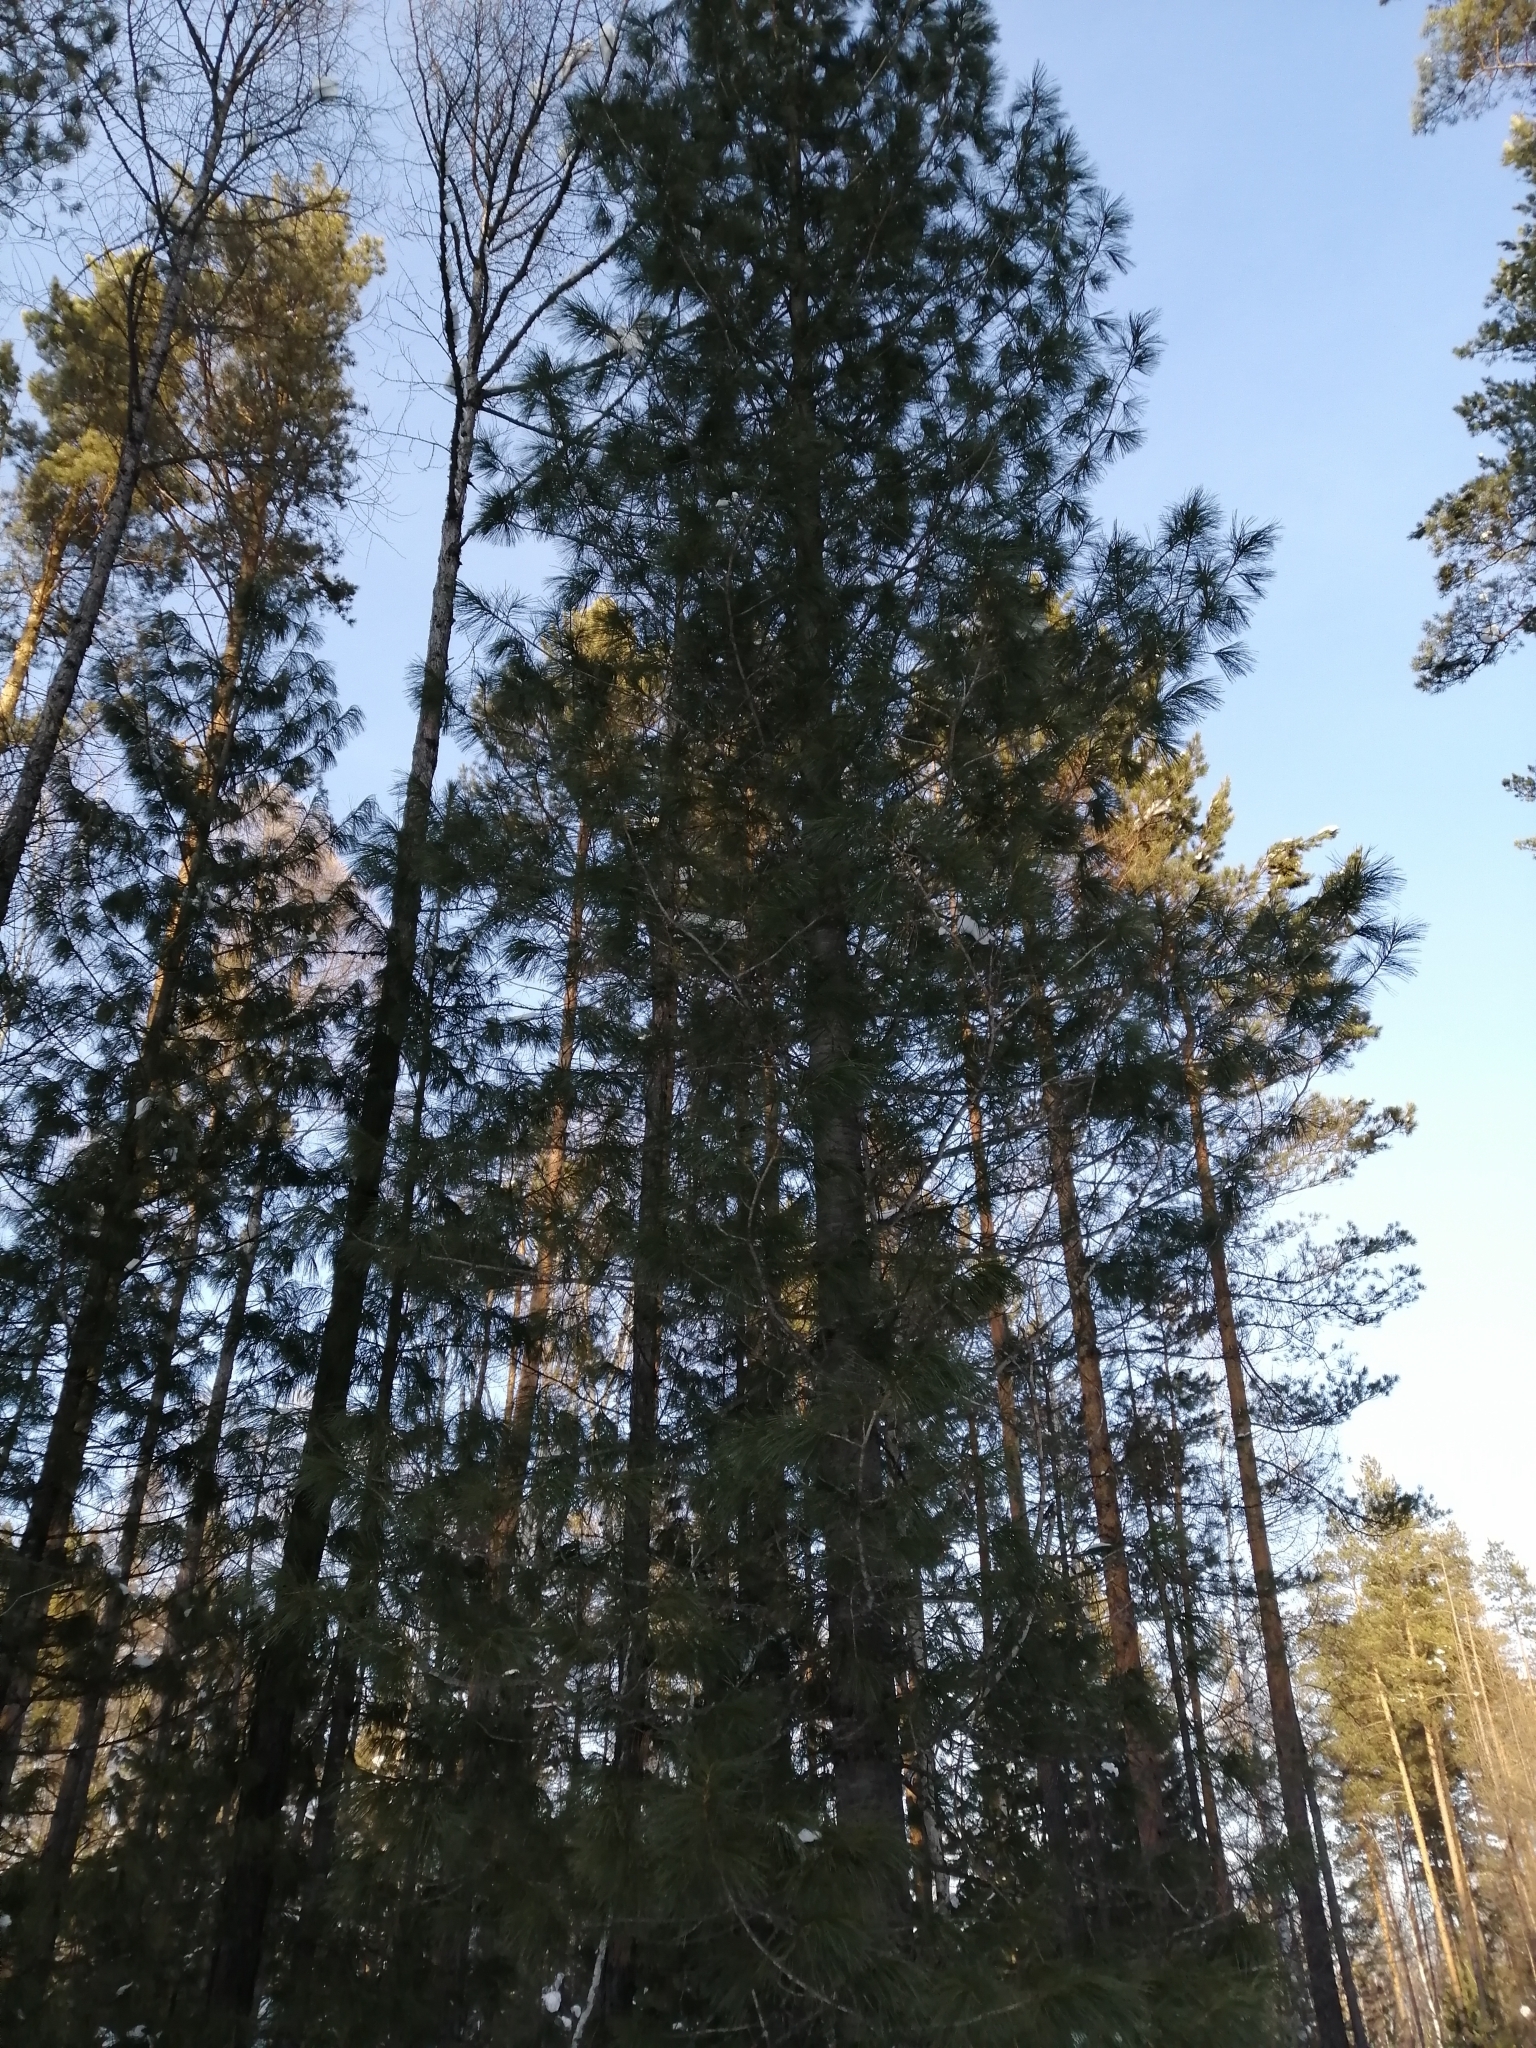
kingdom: Plantae
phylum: Tracheophyta
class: Pinopsida
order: Pinales
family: Pinaceae
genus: Pinus
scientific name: Pinus sibirica
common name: Siberian pine
